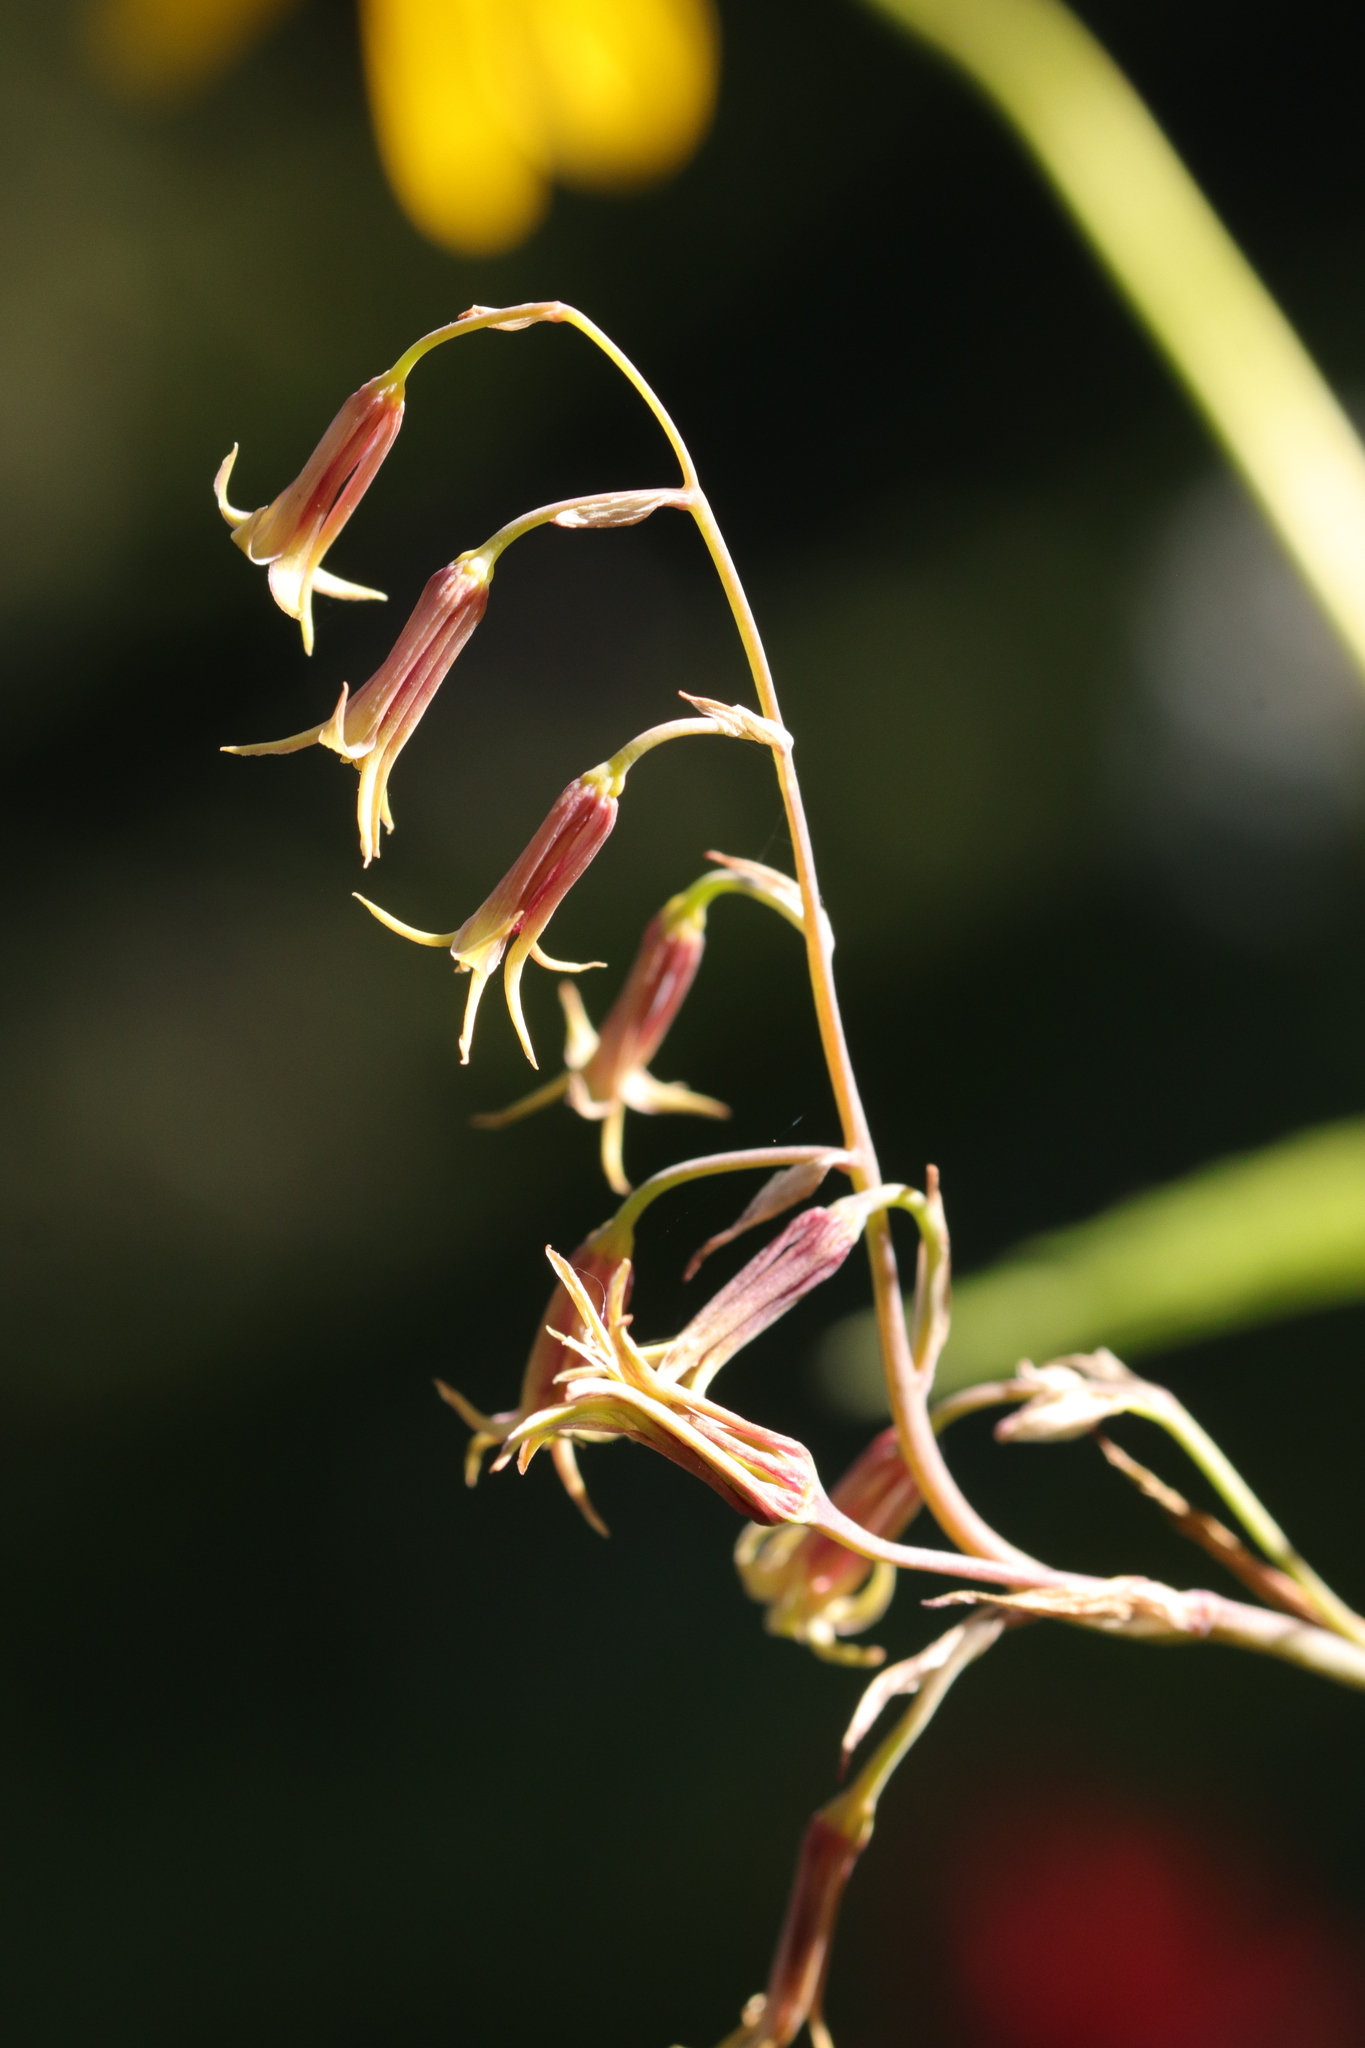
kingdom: Plantae
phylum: Tracheophyta
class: Liliopsida
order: Liliales
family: Melanthiaceae
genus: Anticlea
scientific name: Anticlea occidentalis
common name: Bronze-bells
